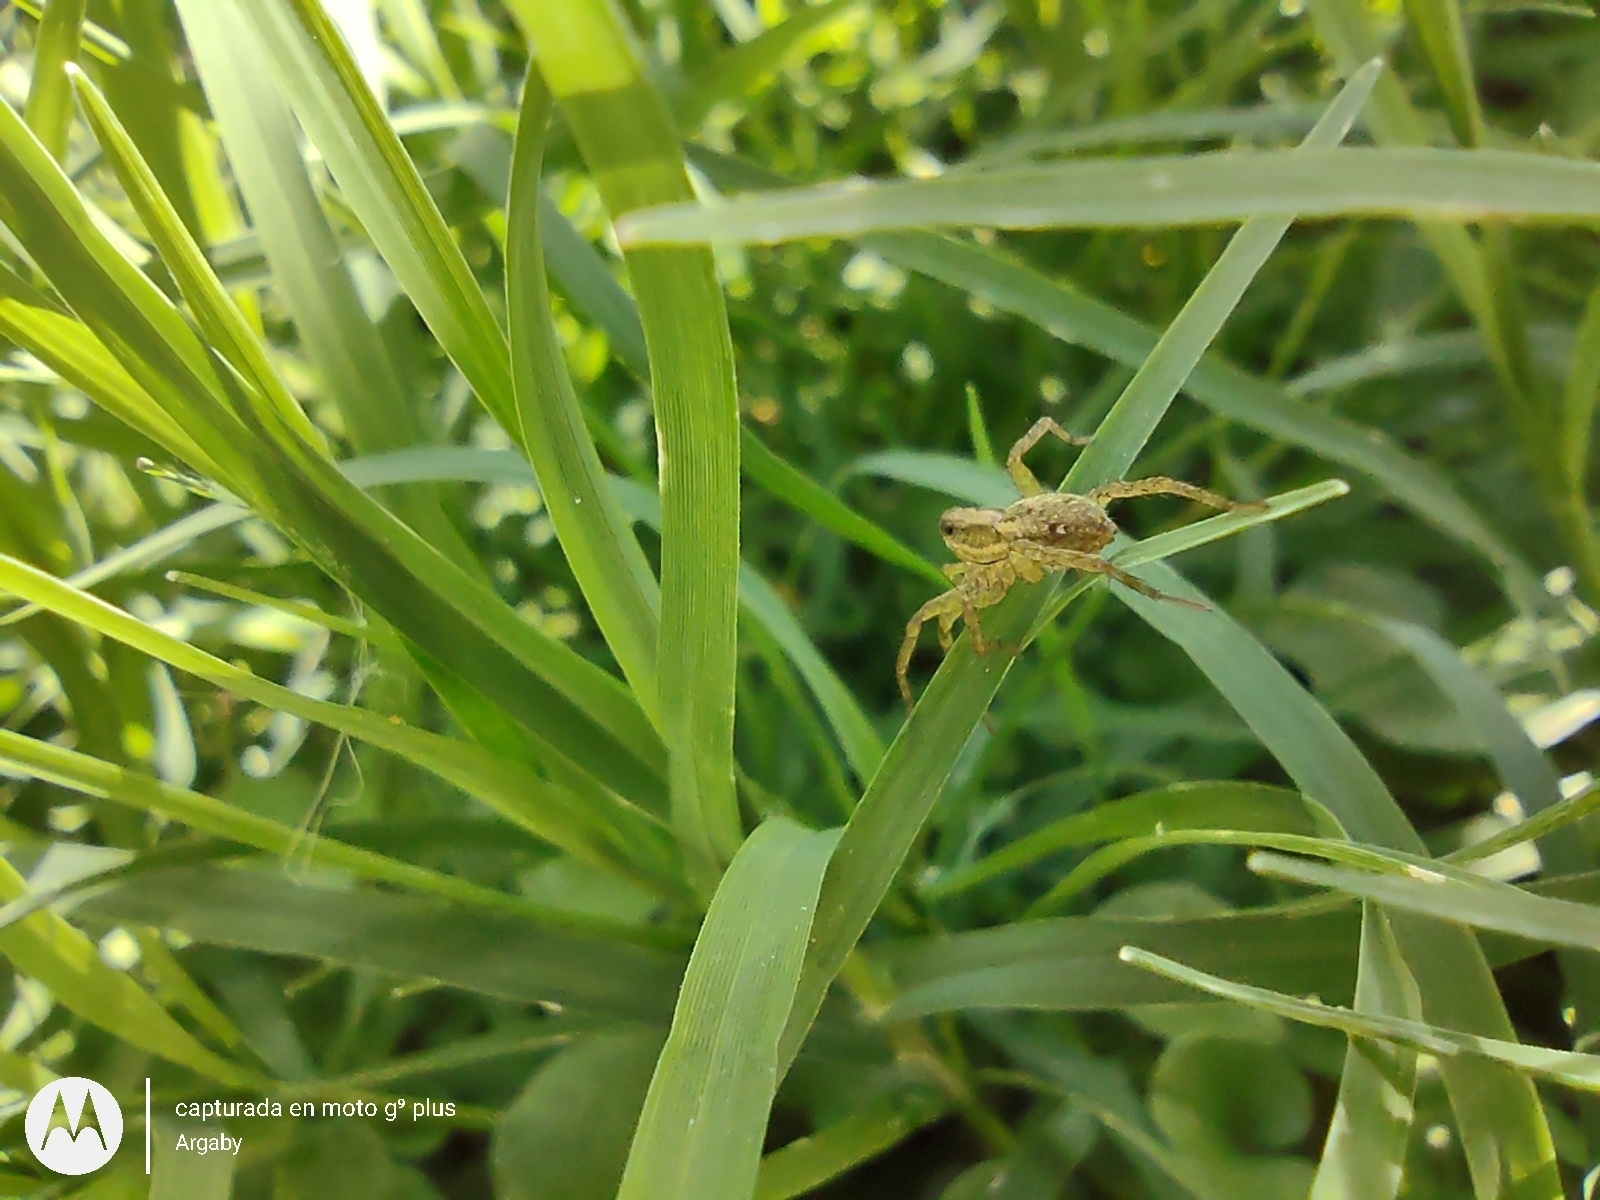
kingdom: Animalia
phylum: Arthropoda
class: Arachnida
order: Araneae
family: Lycosidae
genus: Alopecosa
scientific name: Alopecosa moesta
